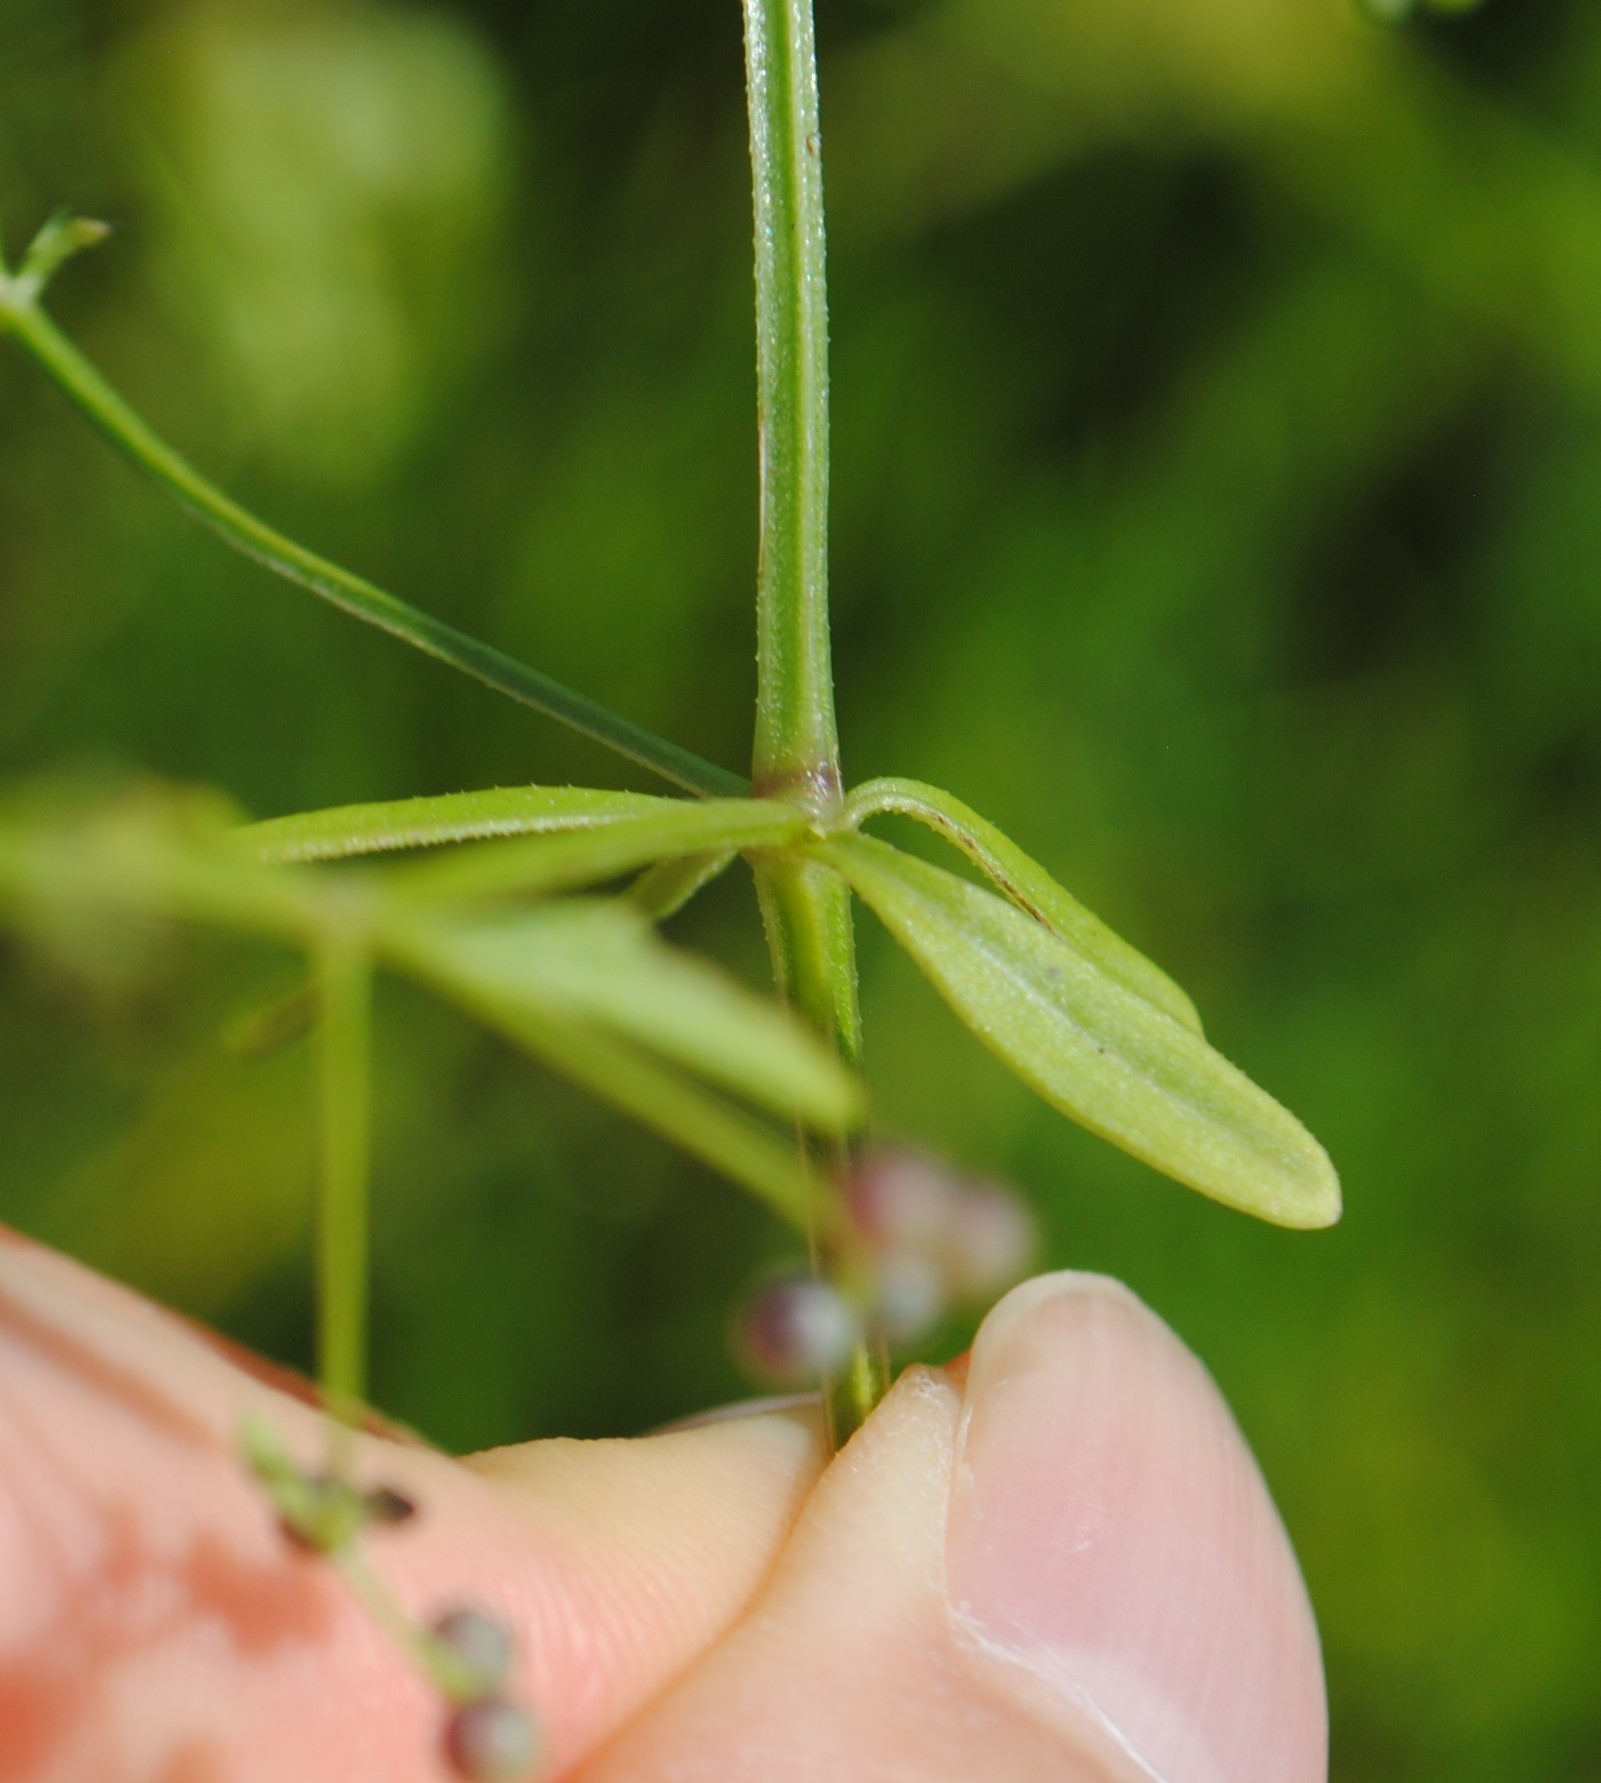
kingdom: Plantae
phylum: Tracheophyta
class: Magnoliopsida
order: Gentianales
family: Rubiaceae
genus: Galium
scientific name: Galium tinctorium
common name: Bedstraw
